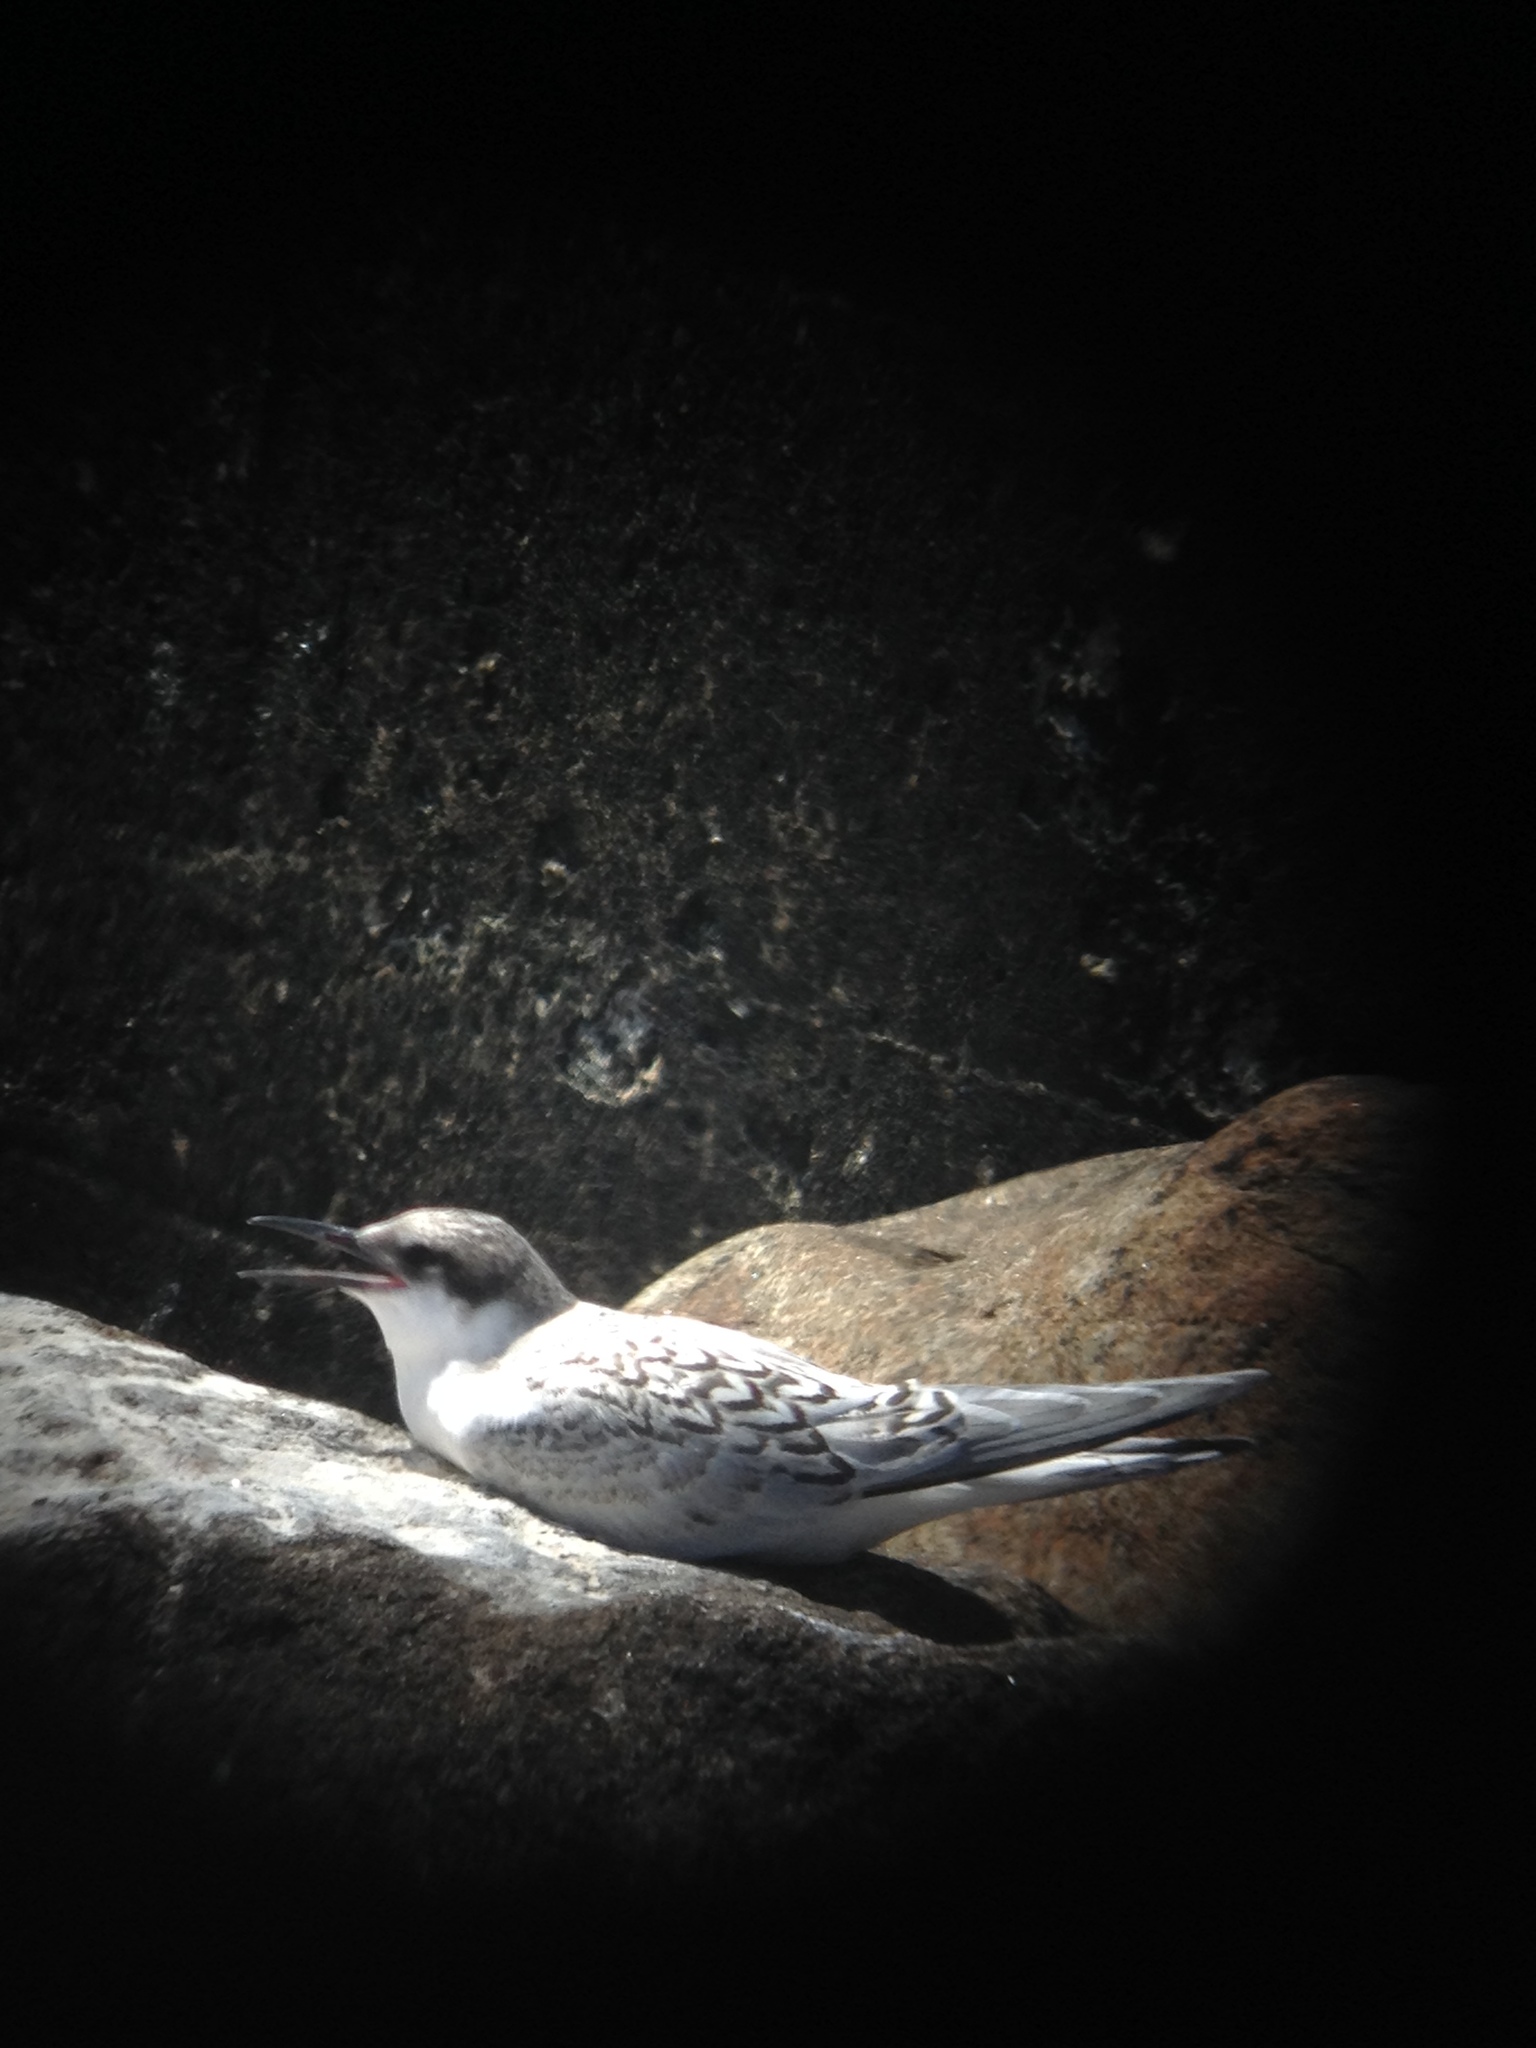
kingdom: Animalia
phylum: Chordata
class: Aves
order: Charadriiformes
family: Laridae
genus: Sterna
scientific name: Sterna dougallii
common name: Roseate tern
